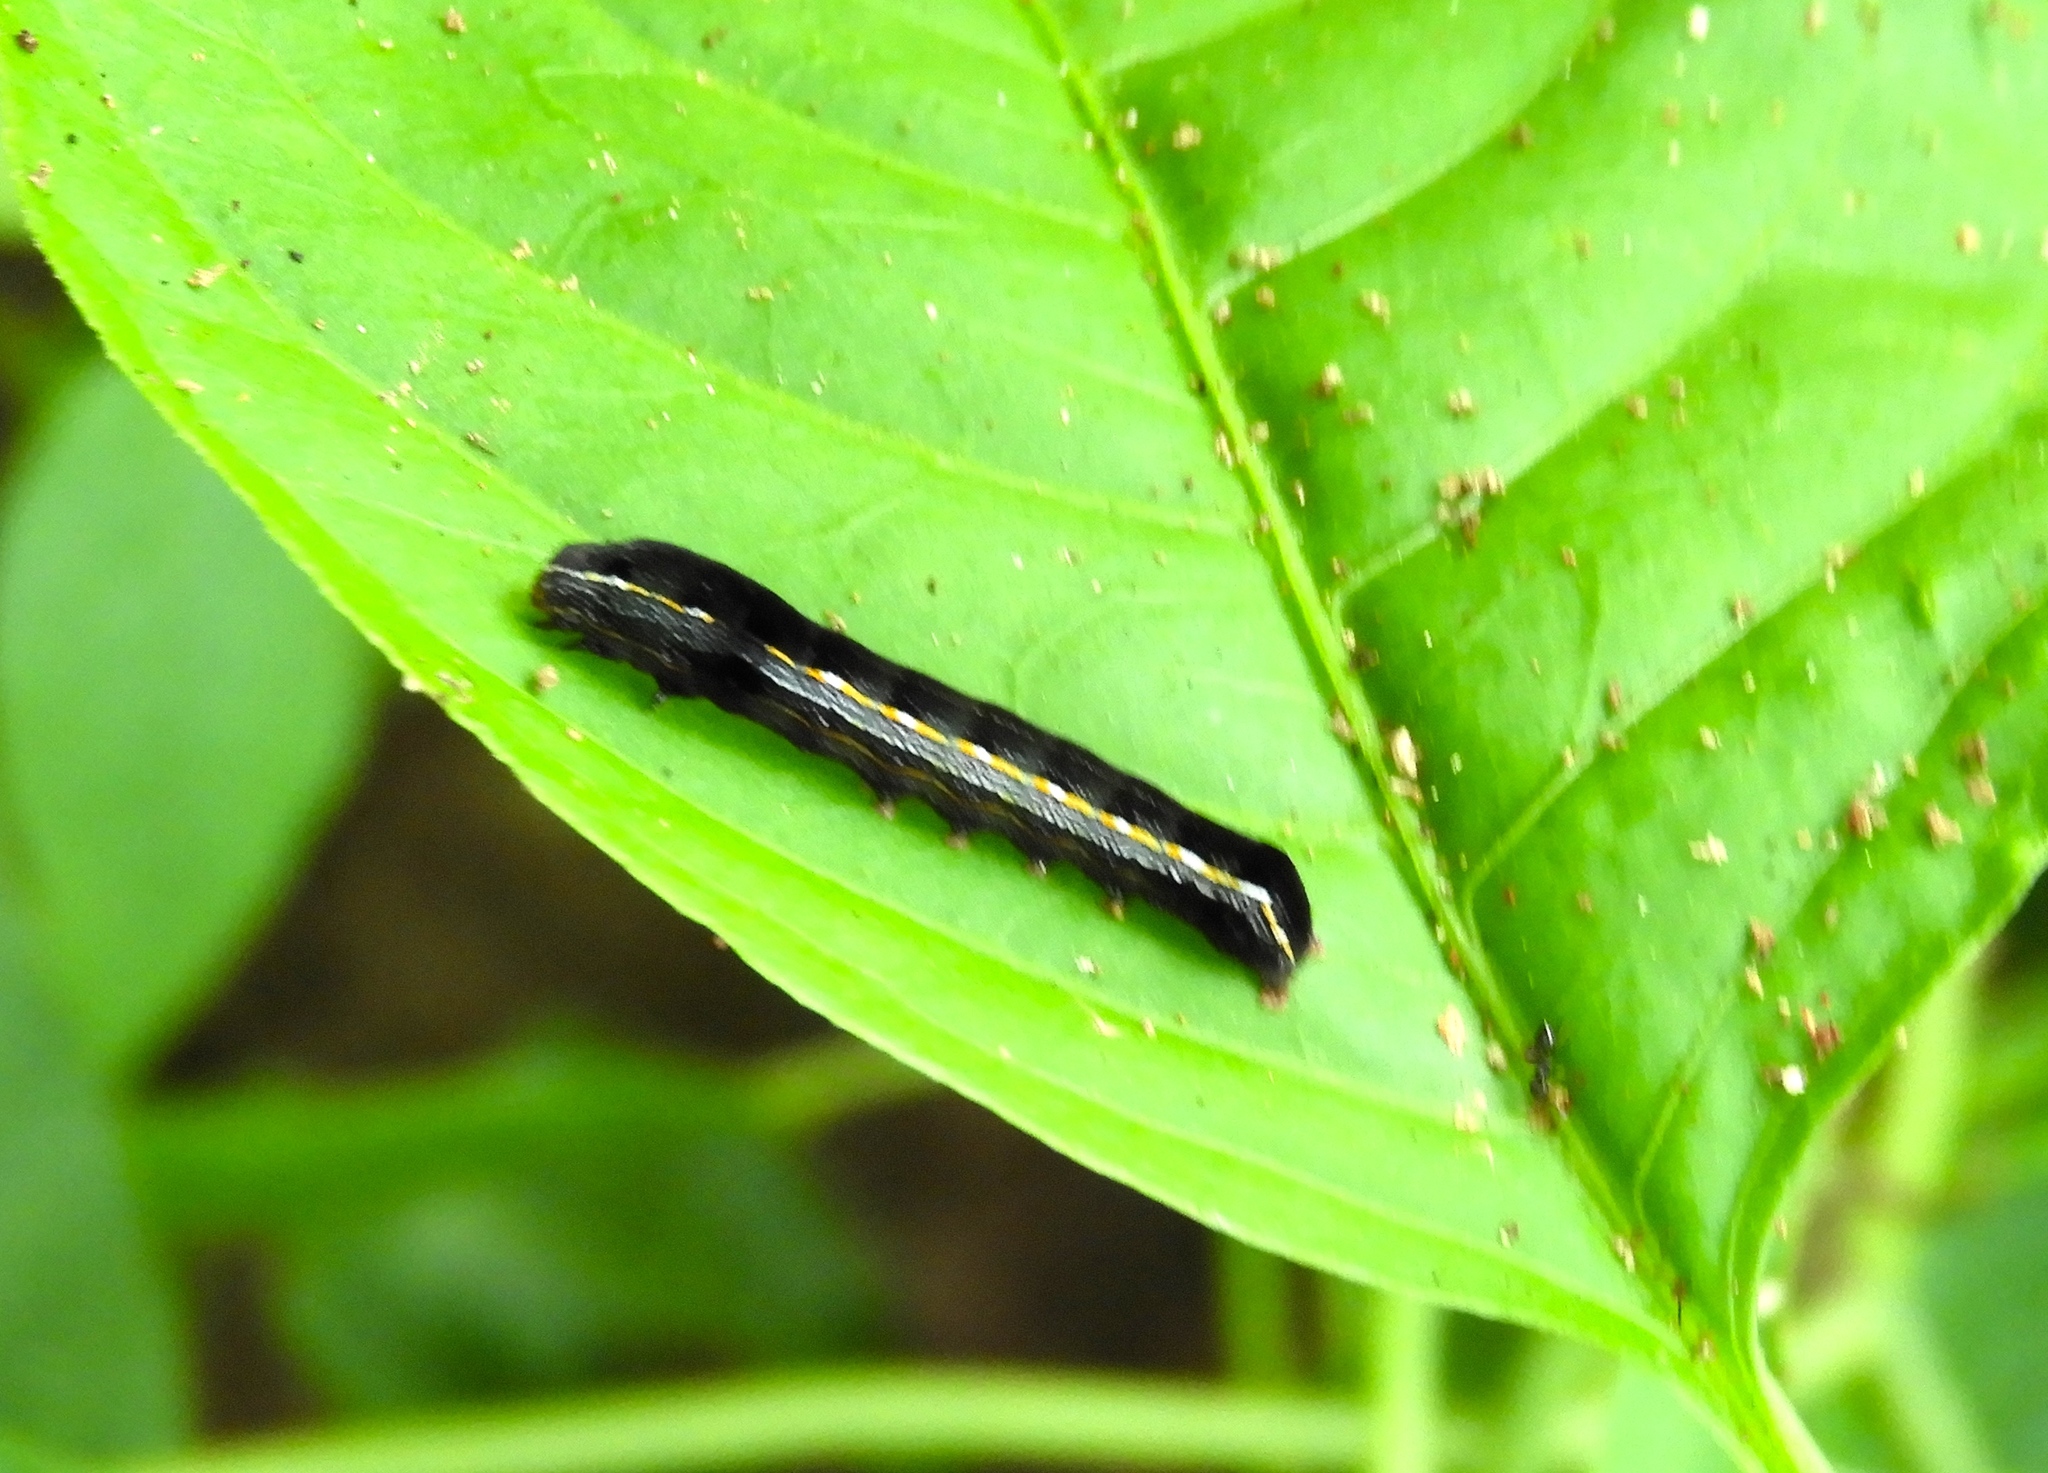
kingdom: Animalia
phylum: Arthropoda
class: Insecta
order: Lepidoptera
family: Noctuidae
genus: Spodoptera
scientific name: Spodoptera ornithogalli
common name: Yellow-striped armyworm
